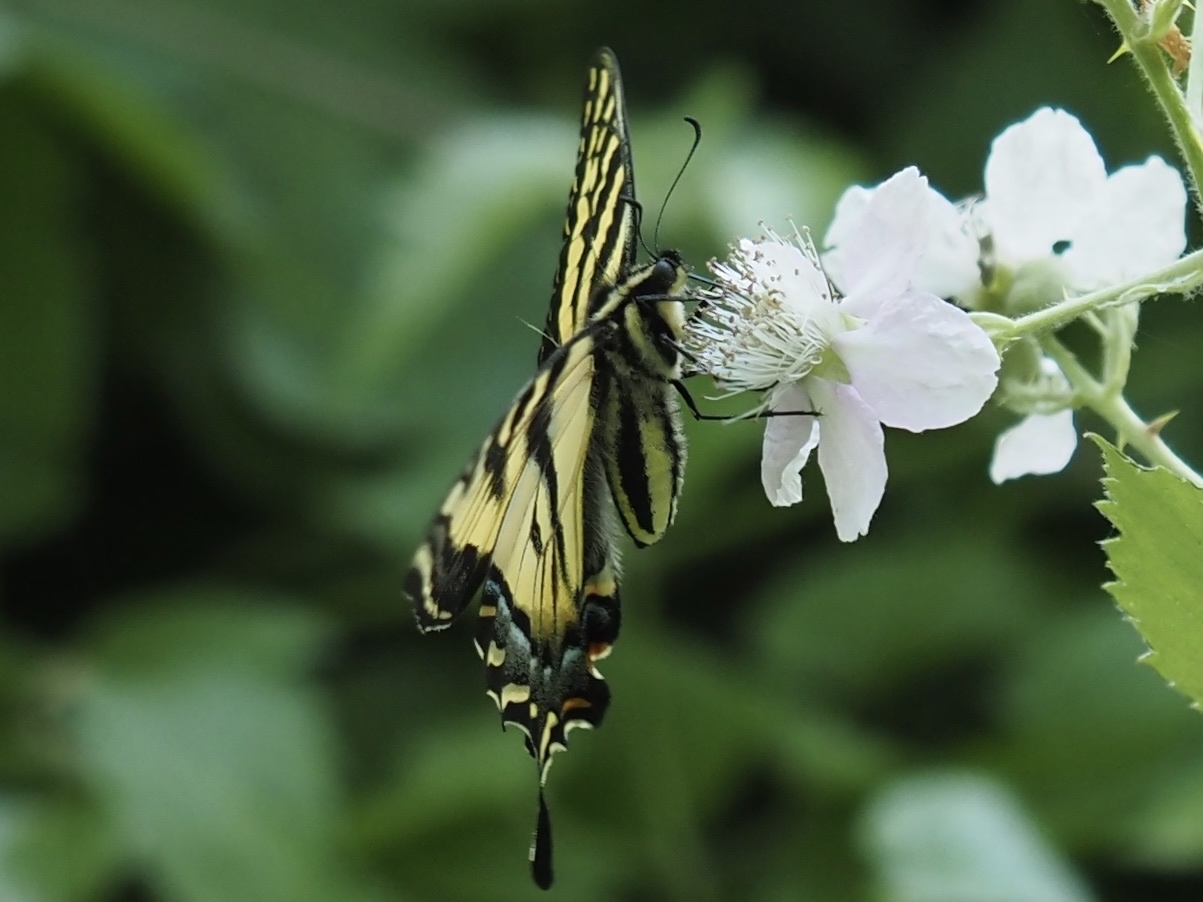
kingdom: Animalia
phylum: Arthropoda
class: Insecta
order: Lepidoptera
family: Papilionidae
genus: Papilio
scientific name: Papilio rutulus
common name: Western tiger swallowtail
